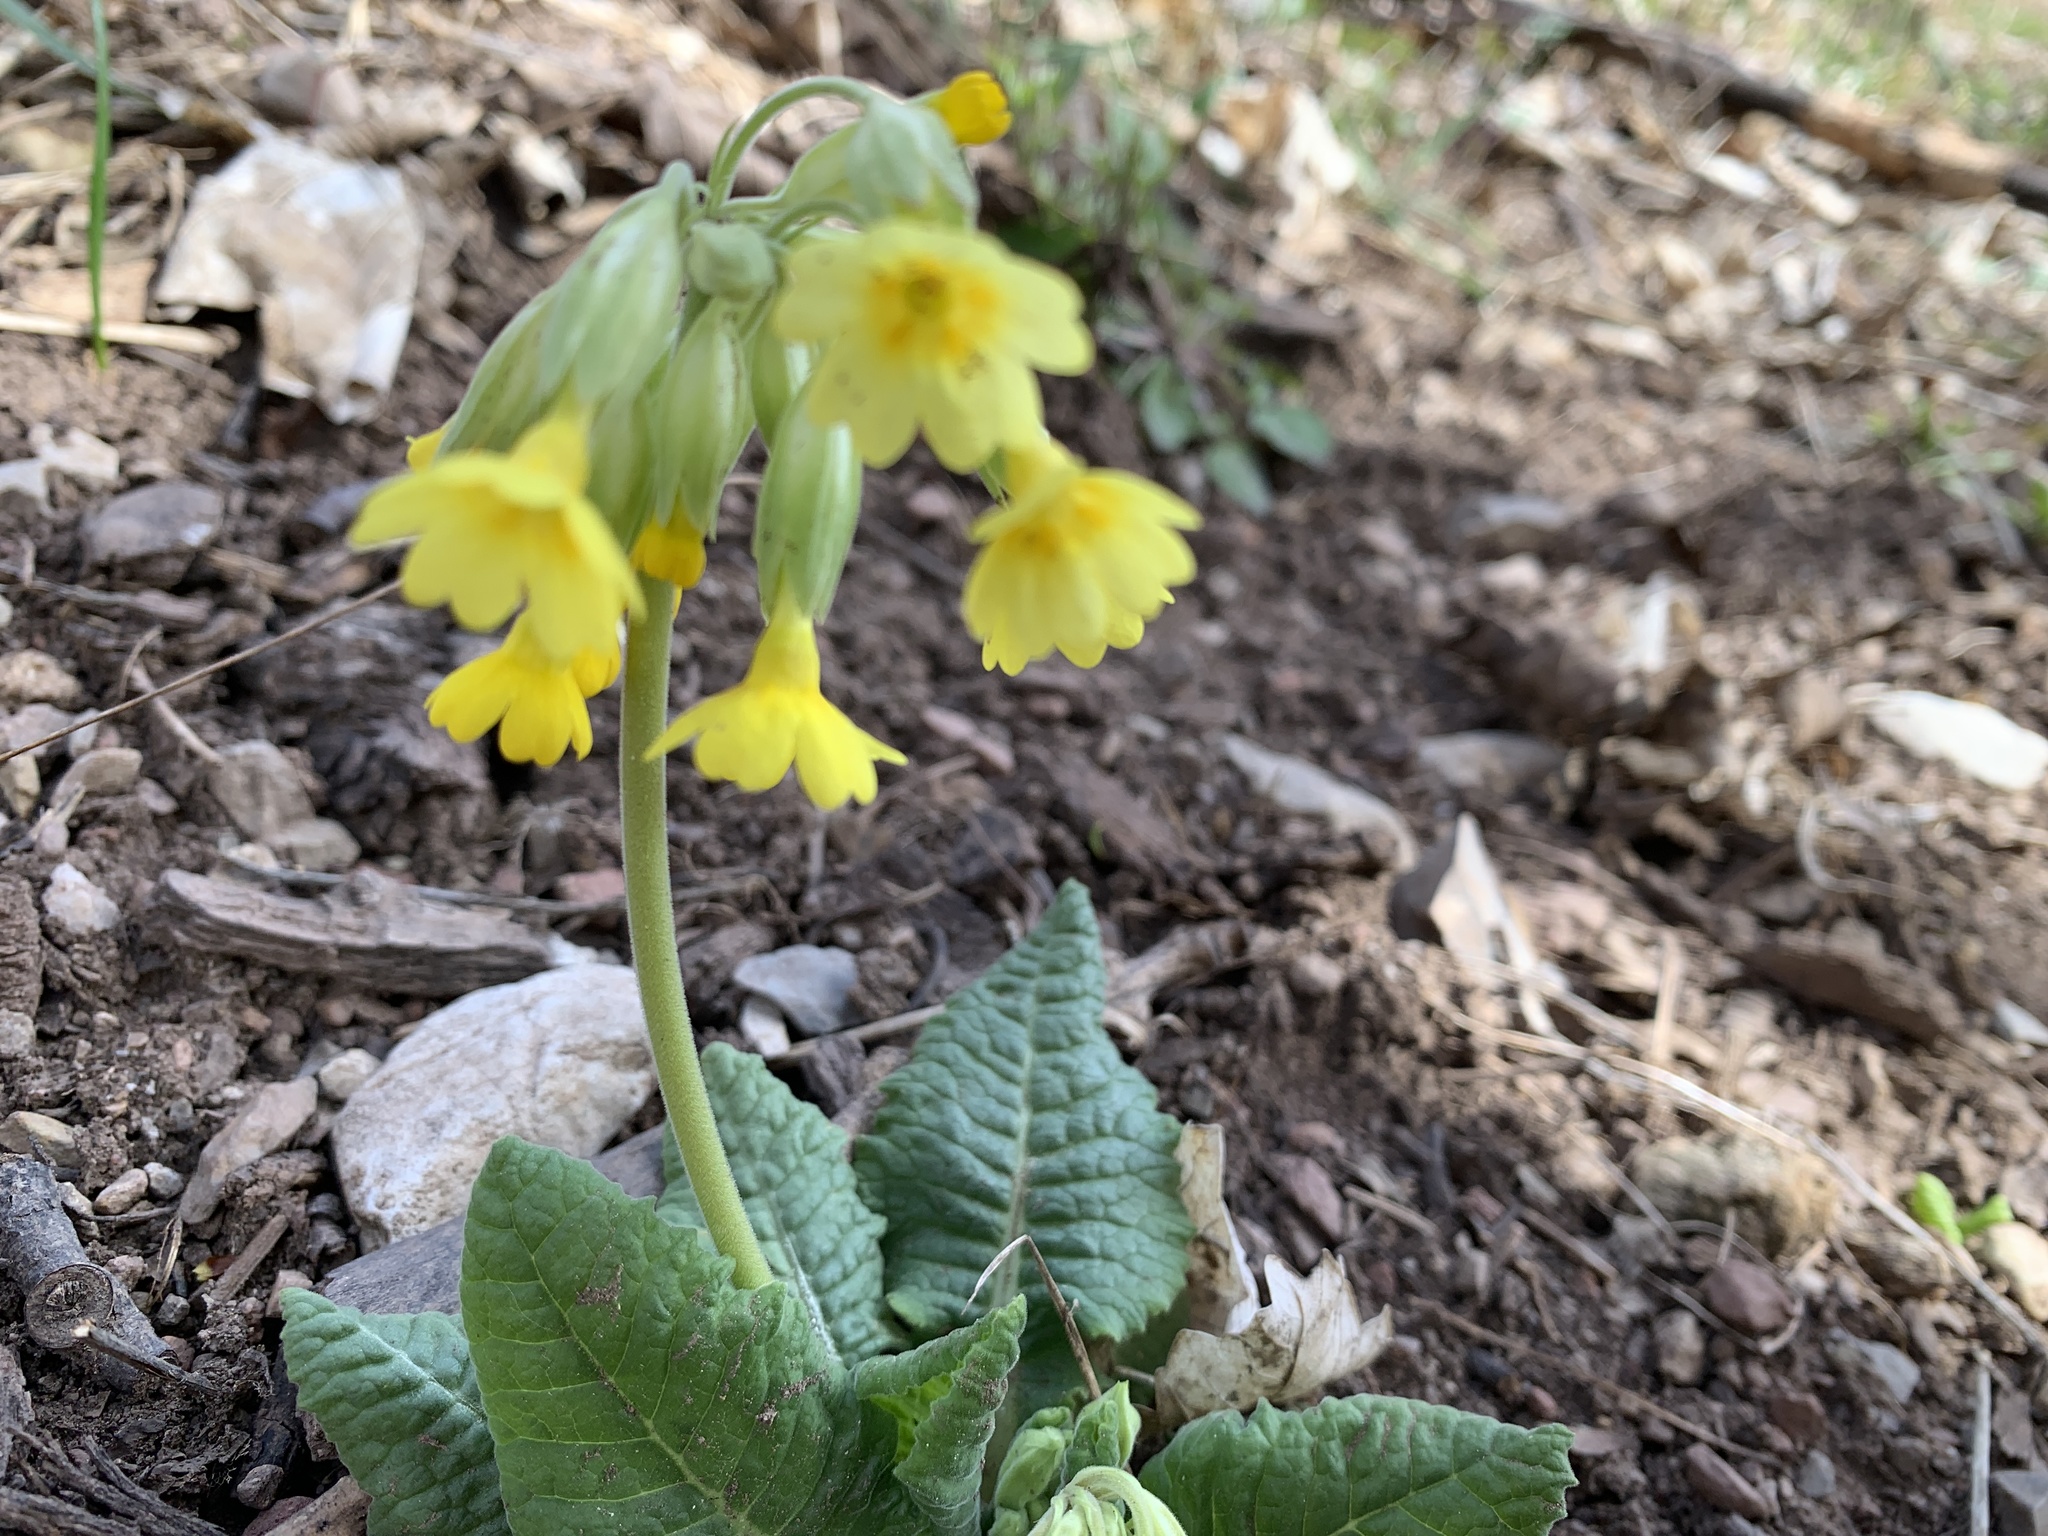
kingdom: Plantae
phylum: Tracheophyta
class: Magnoliopsida
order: Ericales
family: Primulaceae
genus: Primula
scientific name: Primula elatior
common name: Oxlip
